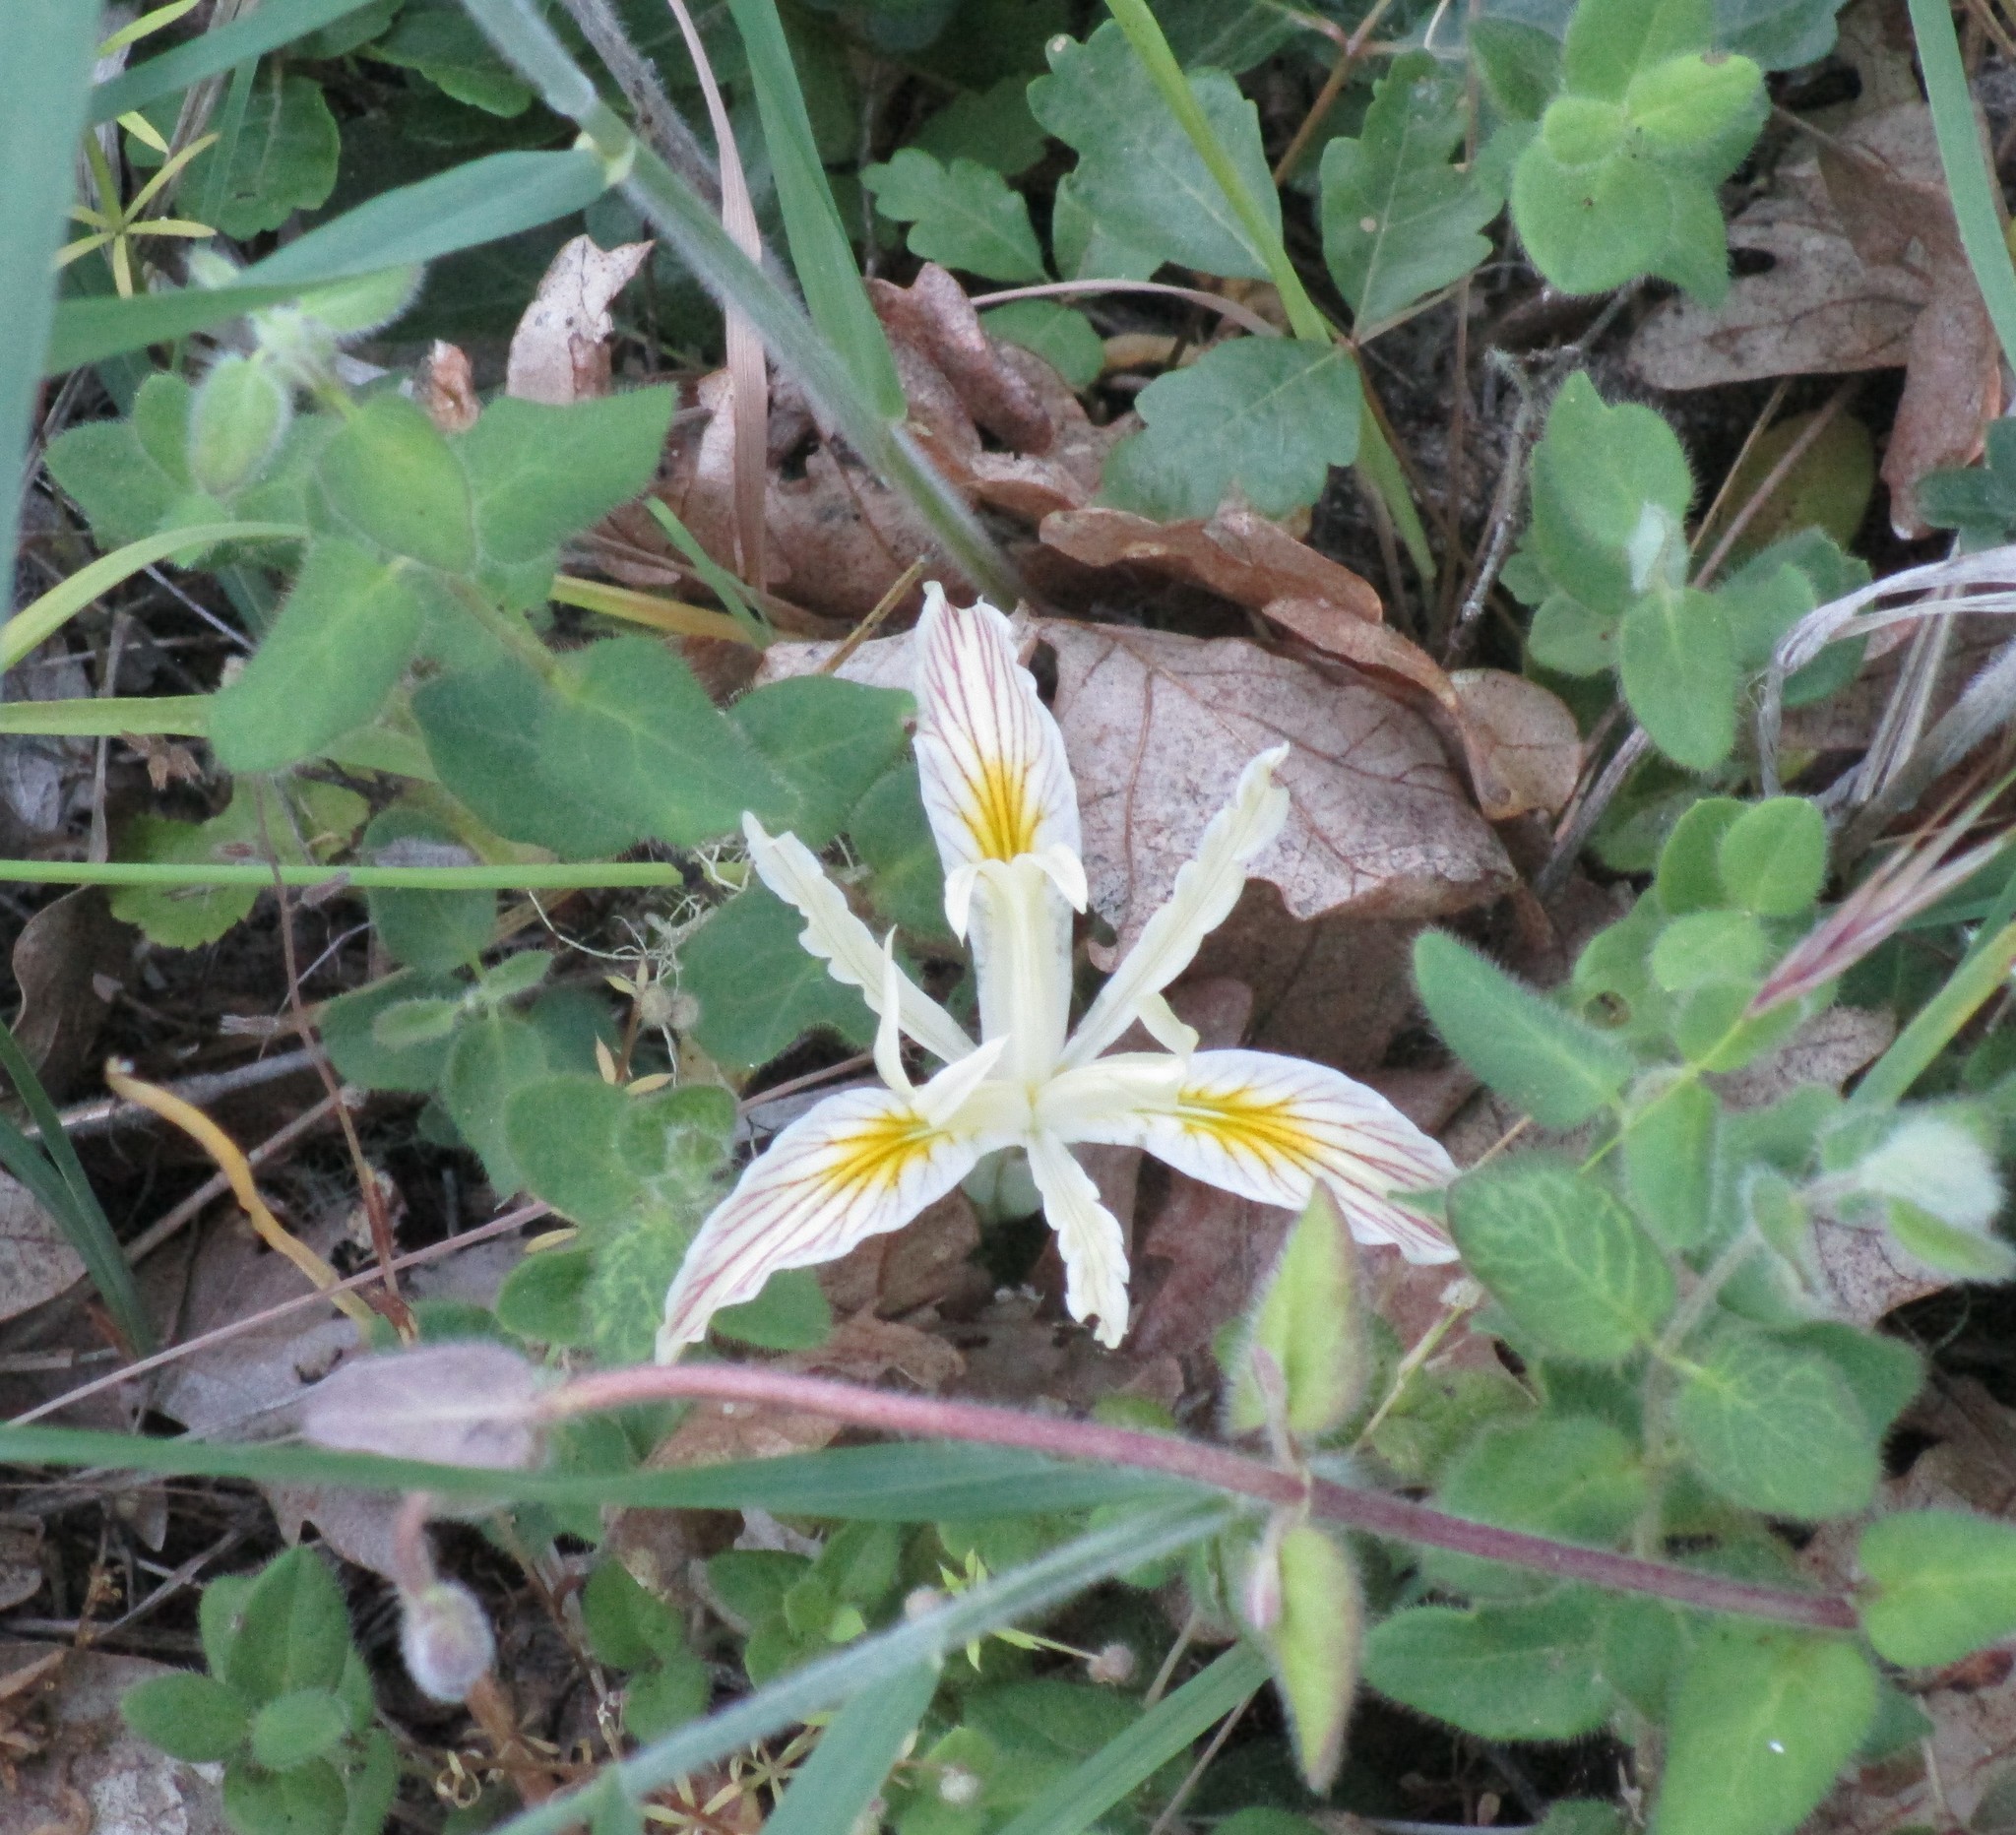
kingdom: Plantae
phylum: Tracheophyta
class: Liliopsida
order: Asparagales
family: Iridaceae
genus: Iris
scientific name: Iris chrysophylla
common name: Yellow-leaf iris
